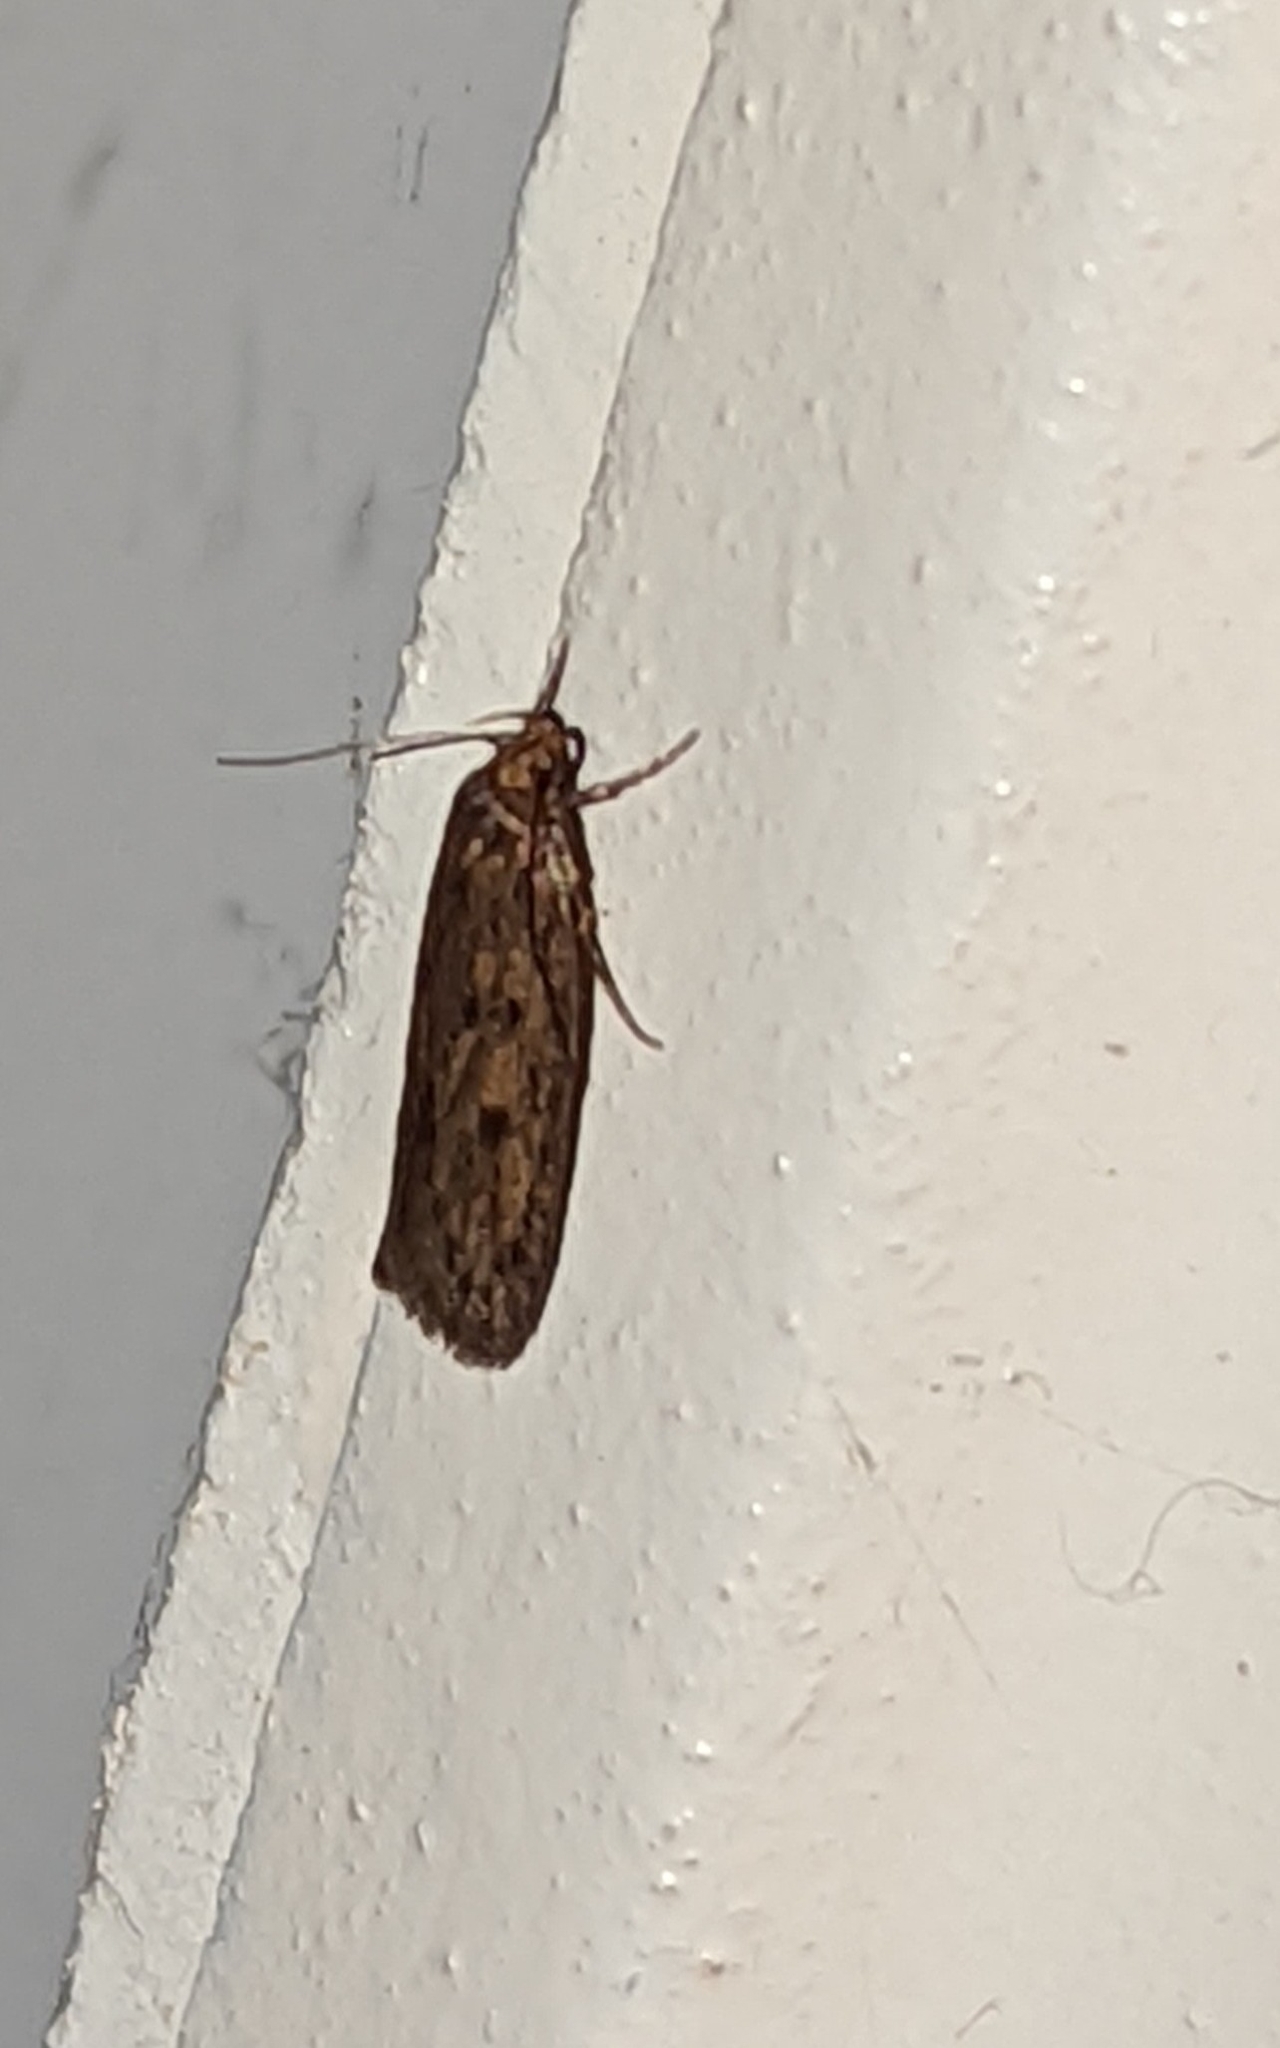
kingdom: Animalia
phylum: Arthropoda
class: Insecta
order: Lepidoptera
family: Oecophoridae
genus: Hofmannophila
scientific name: Hofmannophila pseudospretella
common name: Brown house moth
